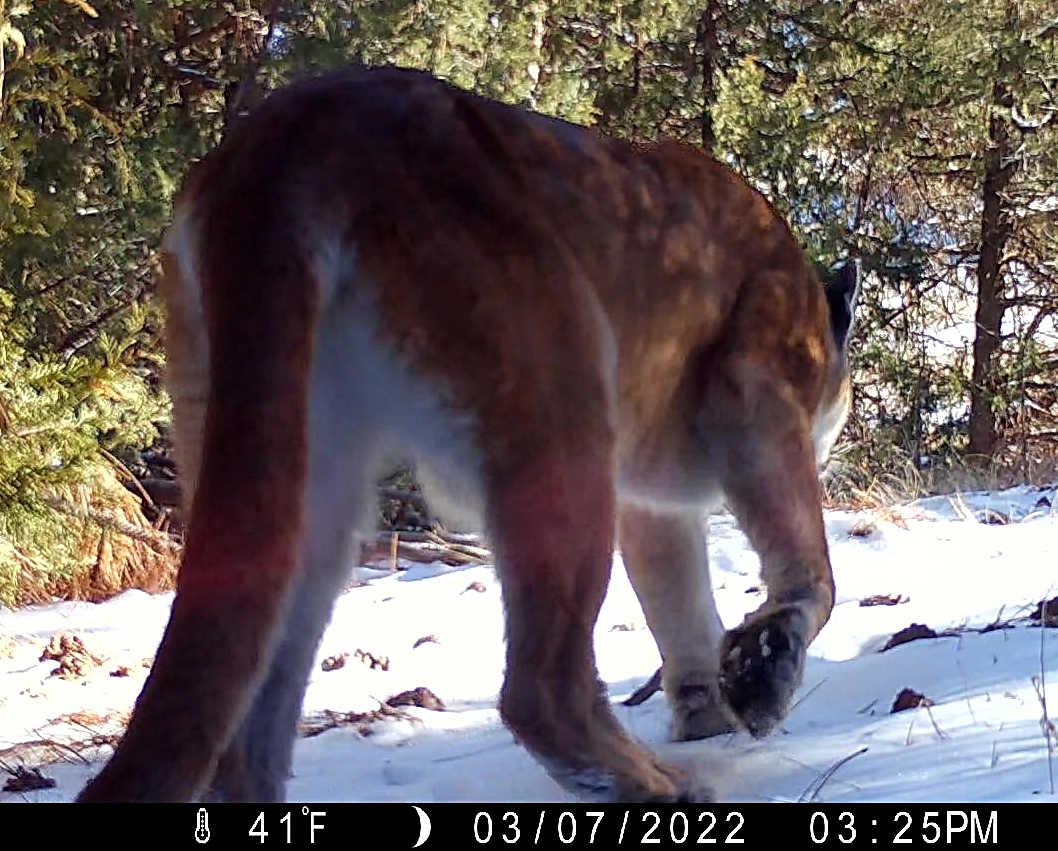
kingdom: Animalia
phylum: Chordata
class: Mammalia
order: Carnivora
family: Felidae
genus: Puma
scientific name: Puma concolor
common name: Puma
